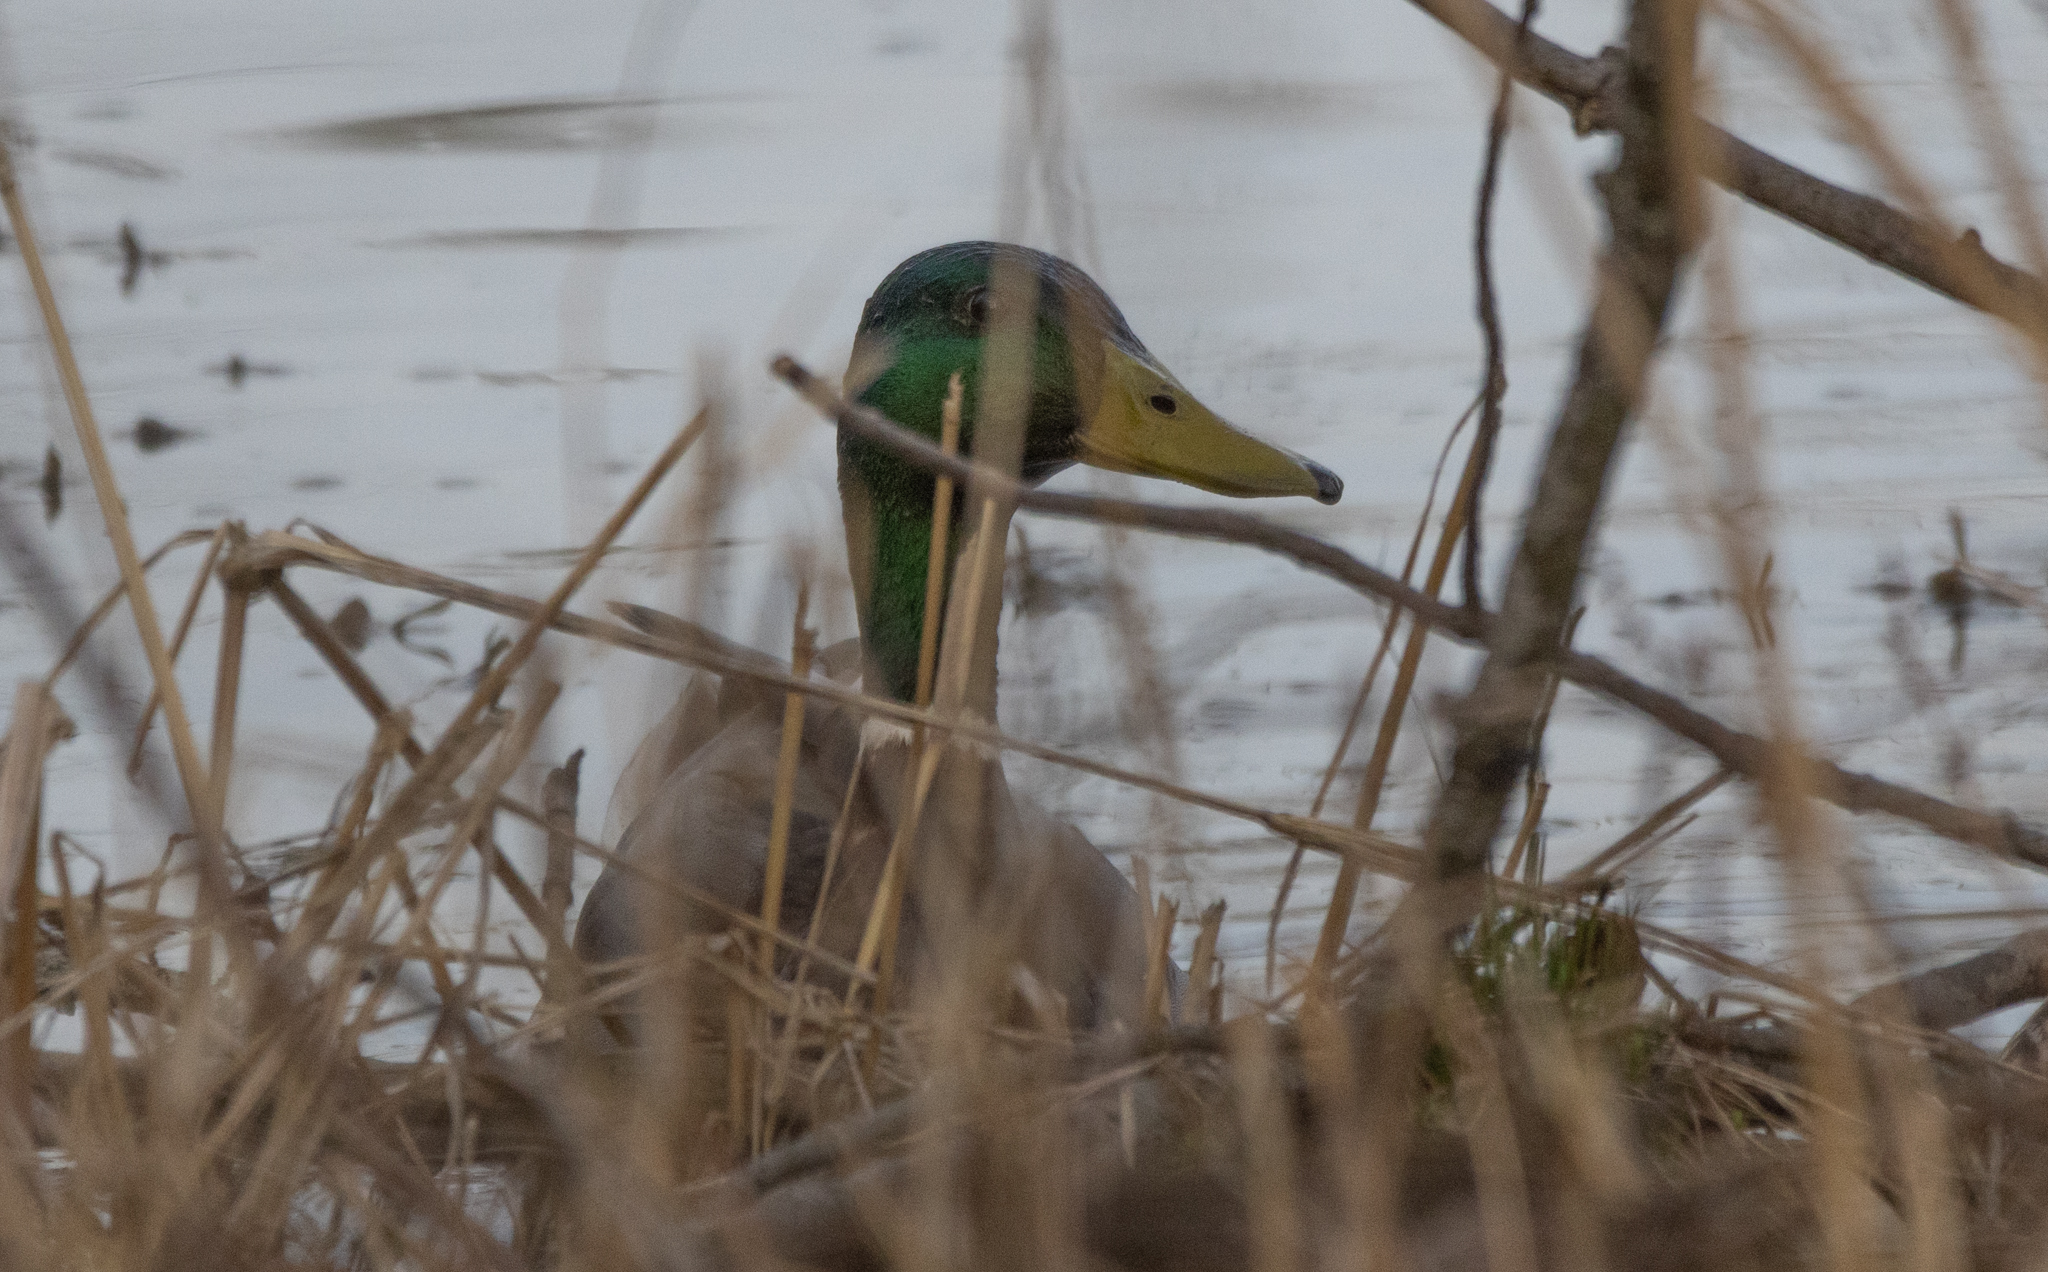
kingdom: Animalia
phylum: Chordata
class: Aves
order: Anseriformes
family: Anatidae
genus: Anas
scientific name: Anas platyrhynchos
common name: Mallard
